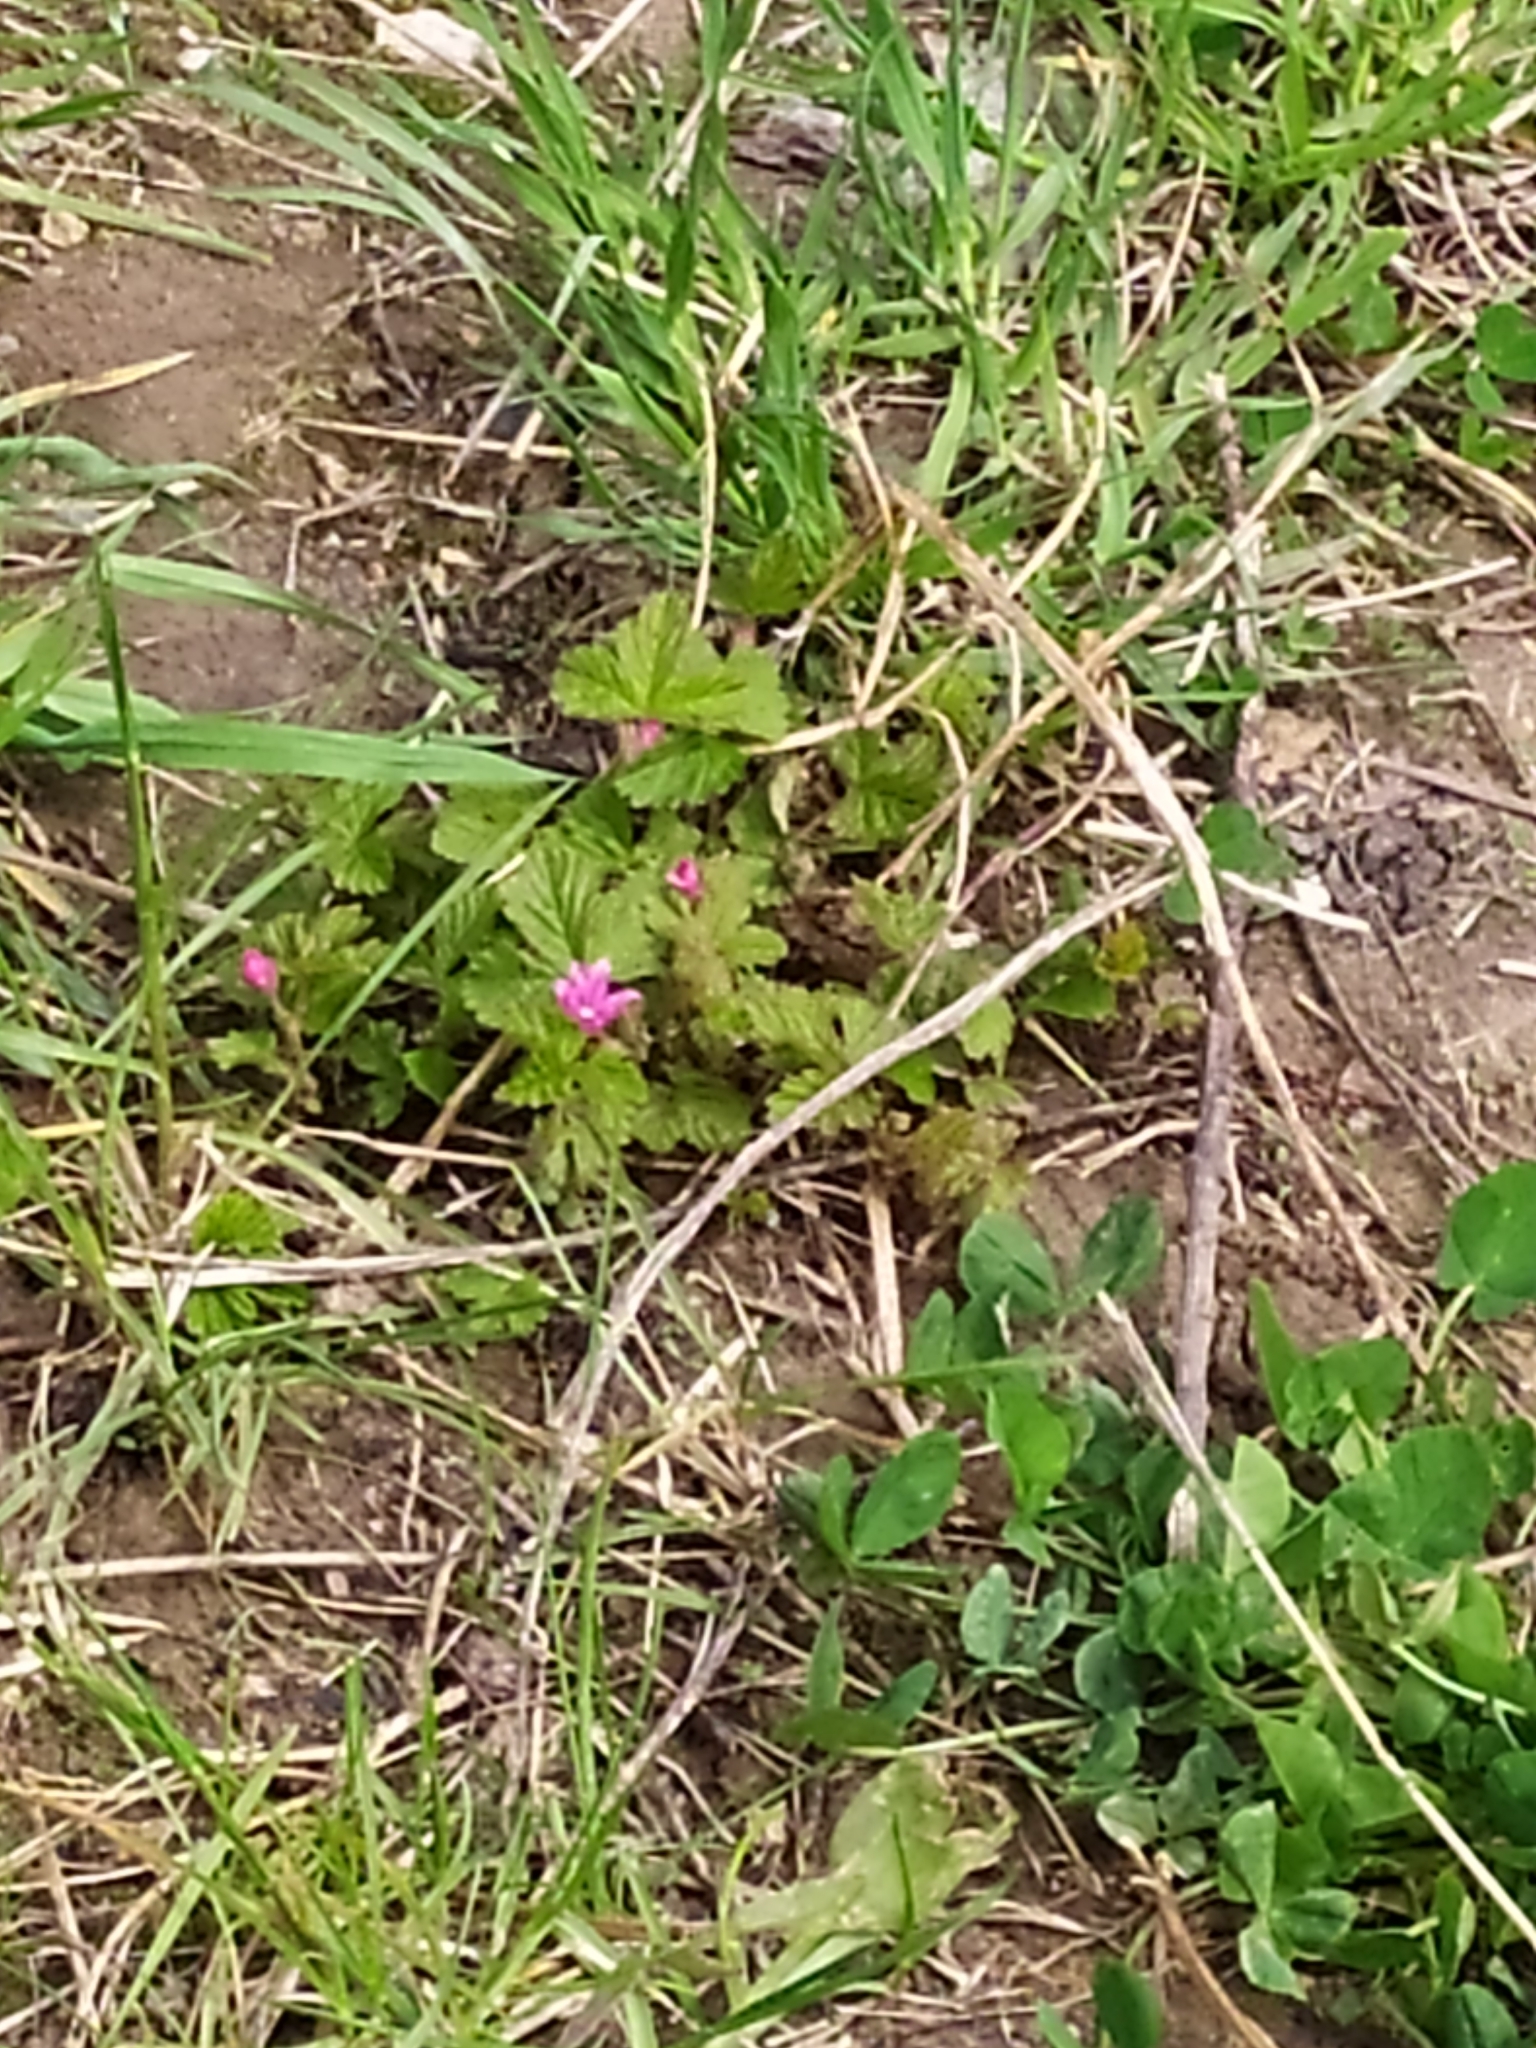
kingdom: Plantae
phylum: Tracheophyta
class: Magnoliopsida
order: Rosales
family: Rosaceae
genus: Rubus
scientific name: Rubus arcticus
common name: Arctic bramble
